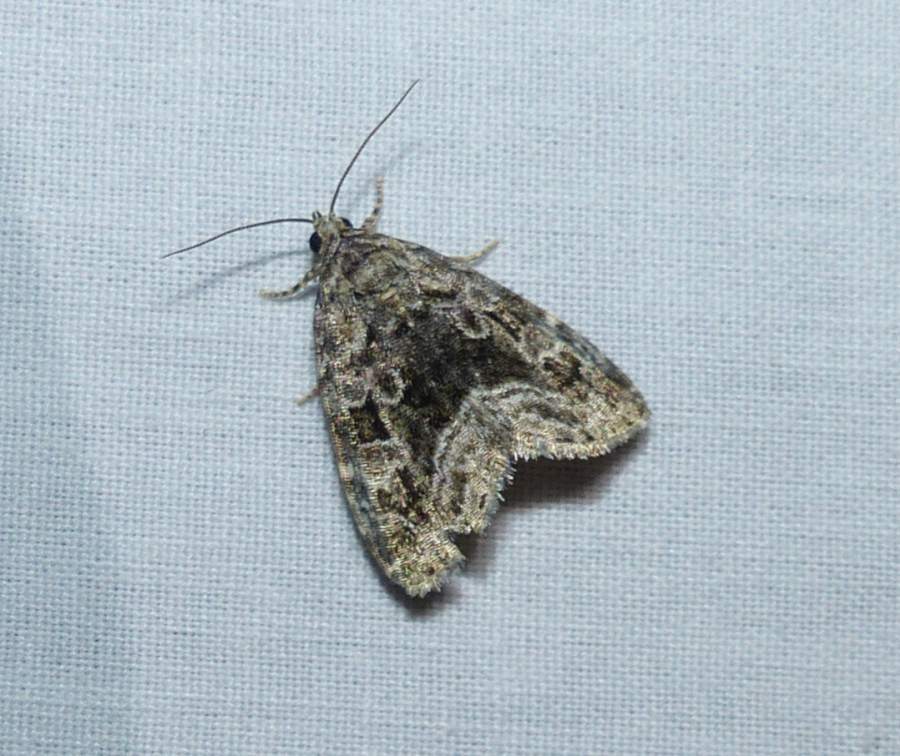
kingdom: Animalia
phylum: Arthropoda
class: Insecta
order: Lepidoptera
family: Noctuidae
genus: Protodeltote
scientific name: Protodeltote muscosula
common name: Large mossy glyph
